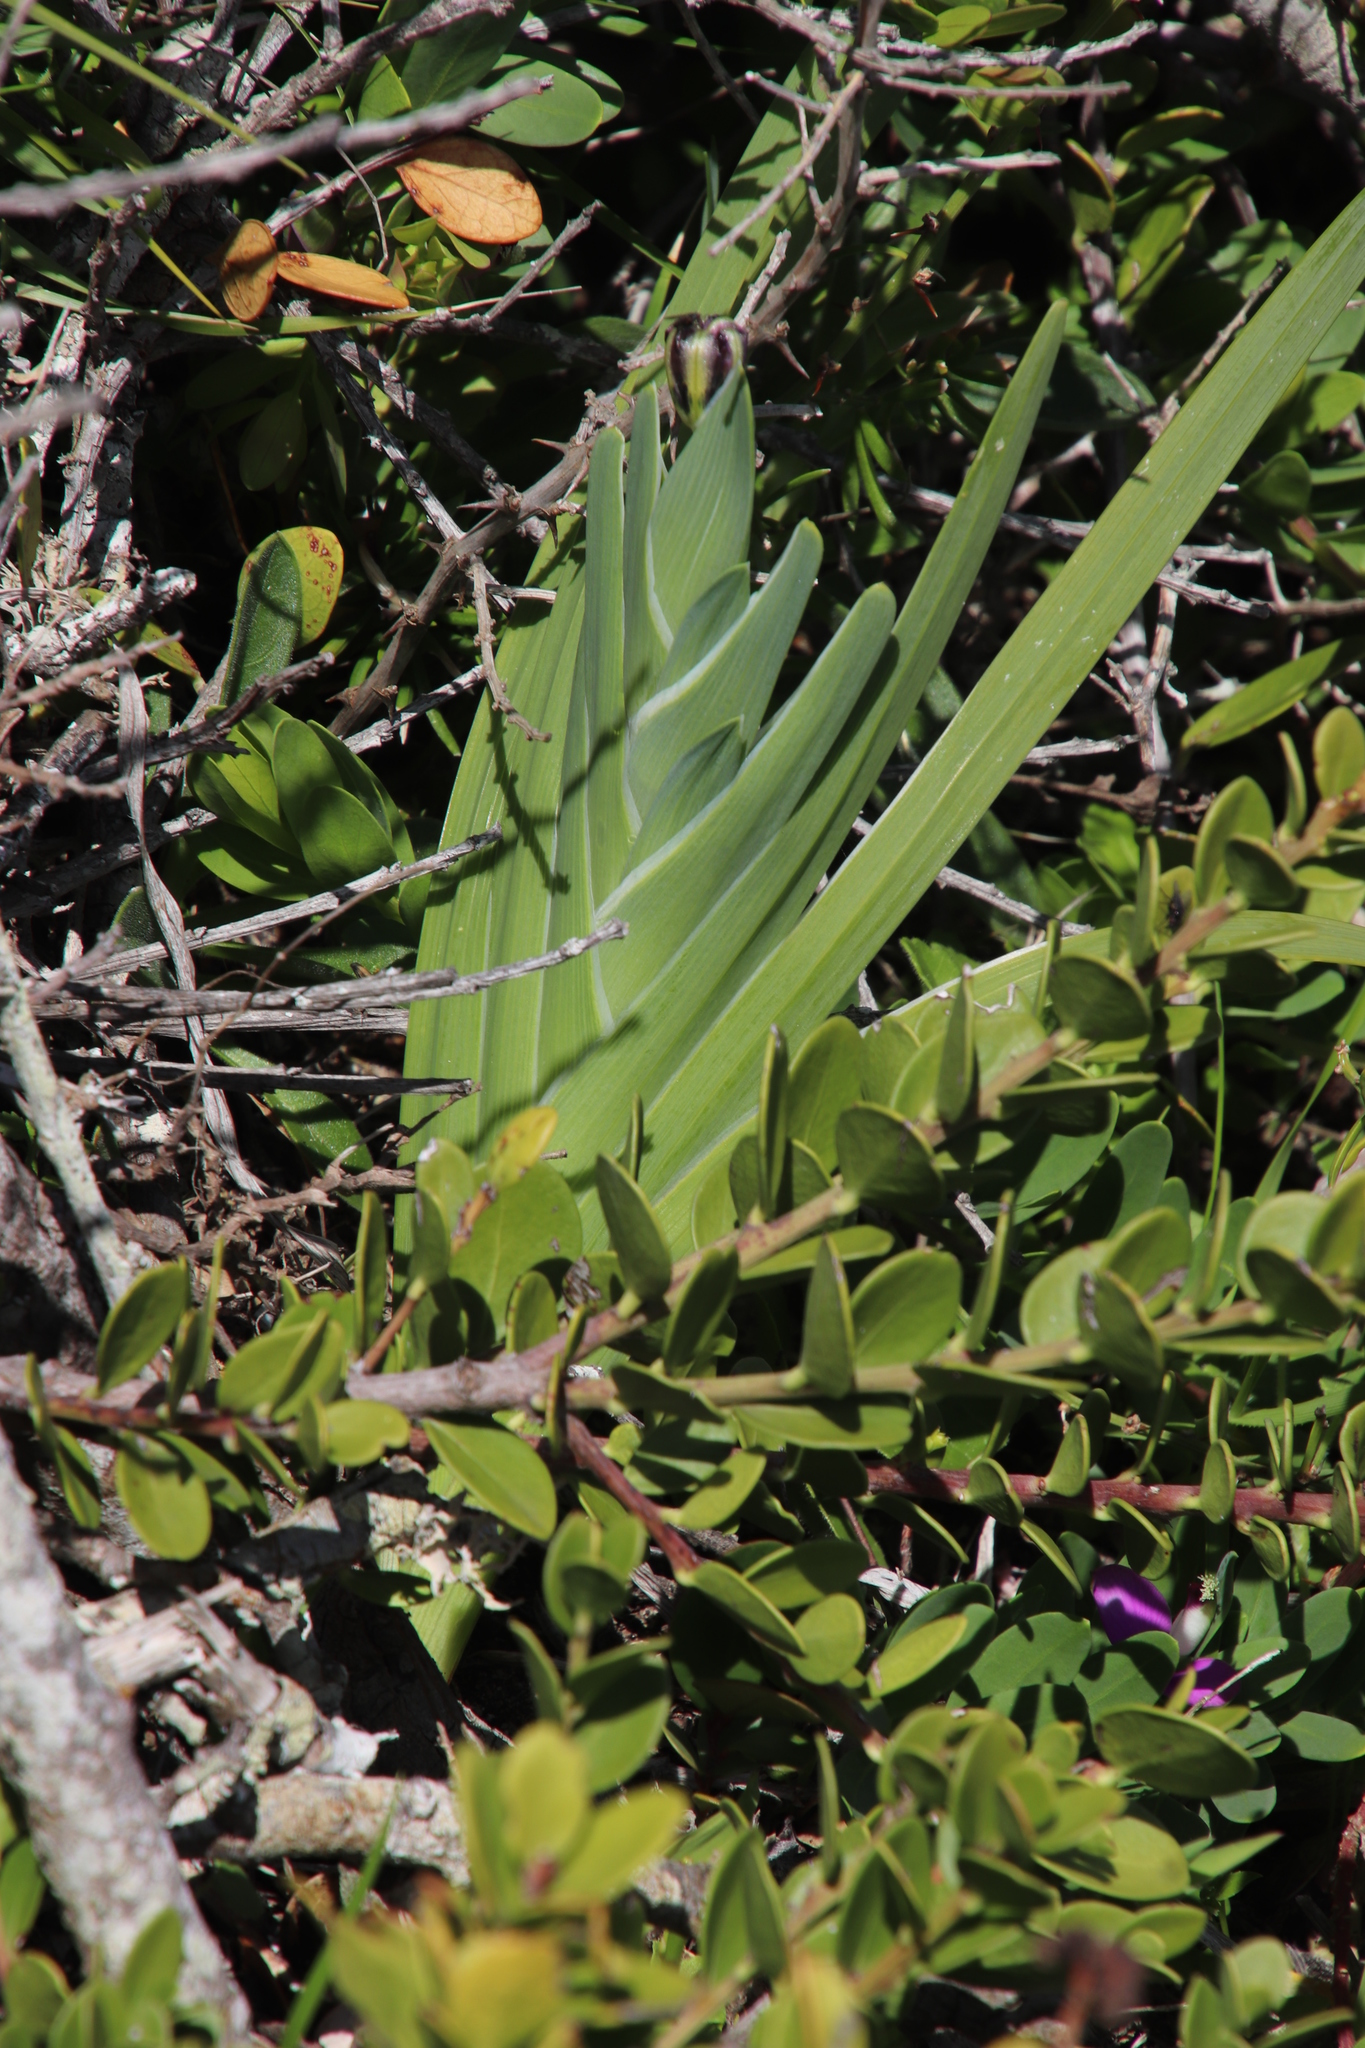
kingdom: Plantae
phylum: Tracheophyta
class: Liliopsida
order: Asparagales
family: Iridaceae
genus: Ferraria
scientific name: Ferraria crispa
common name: Black-flag
